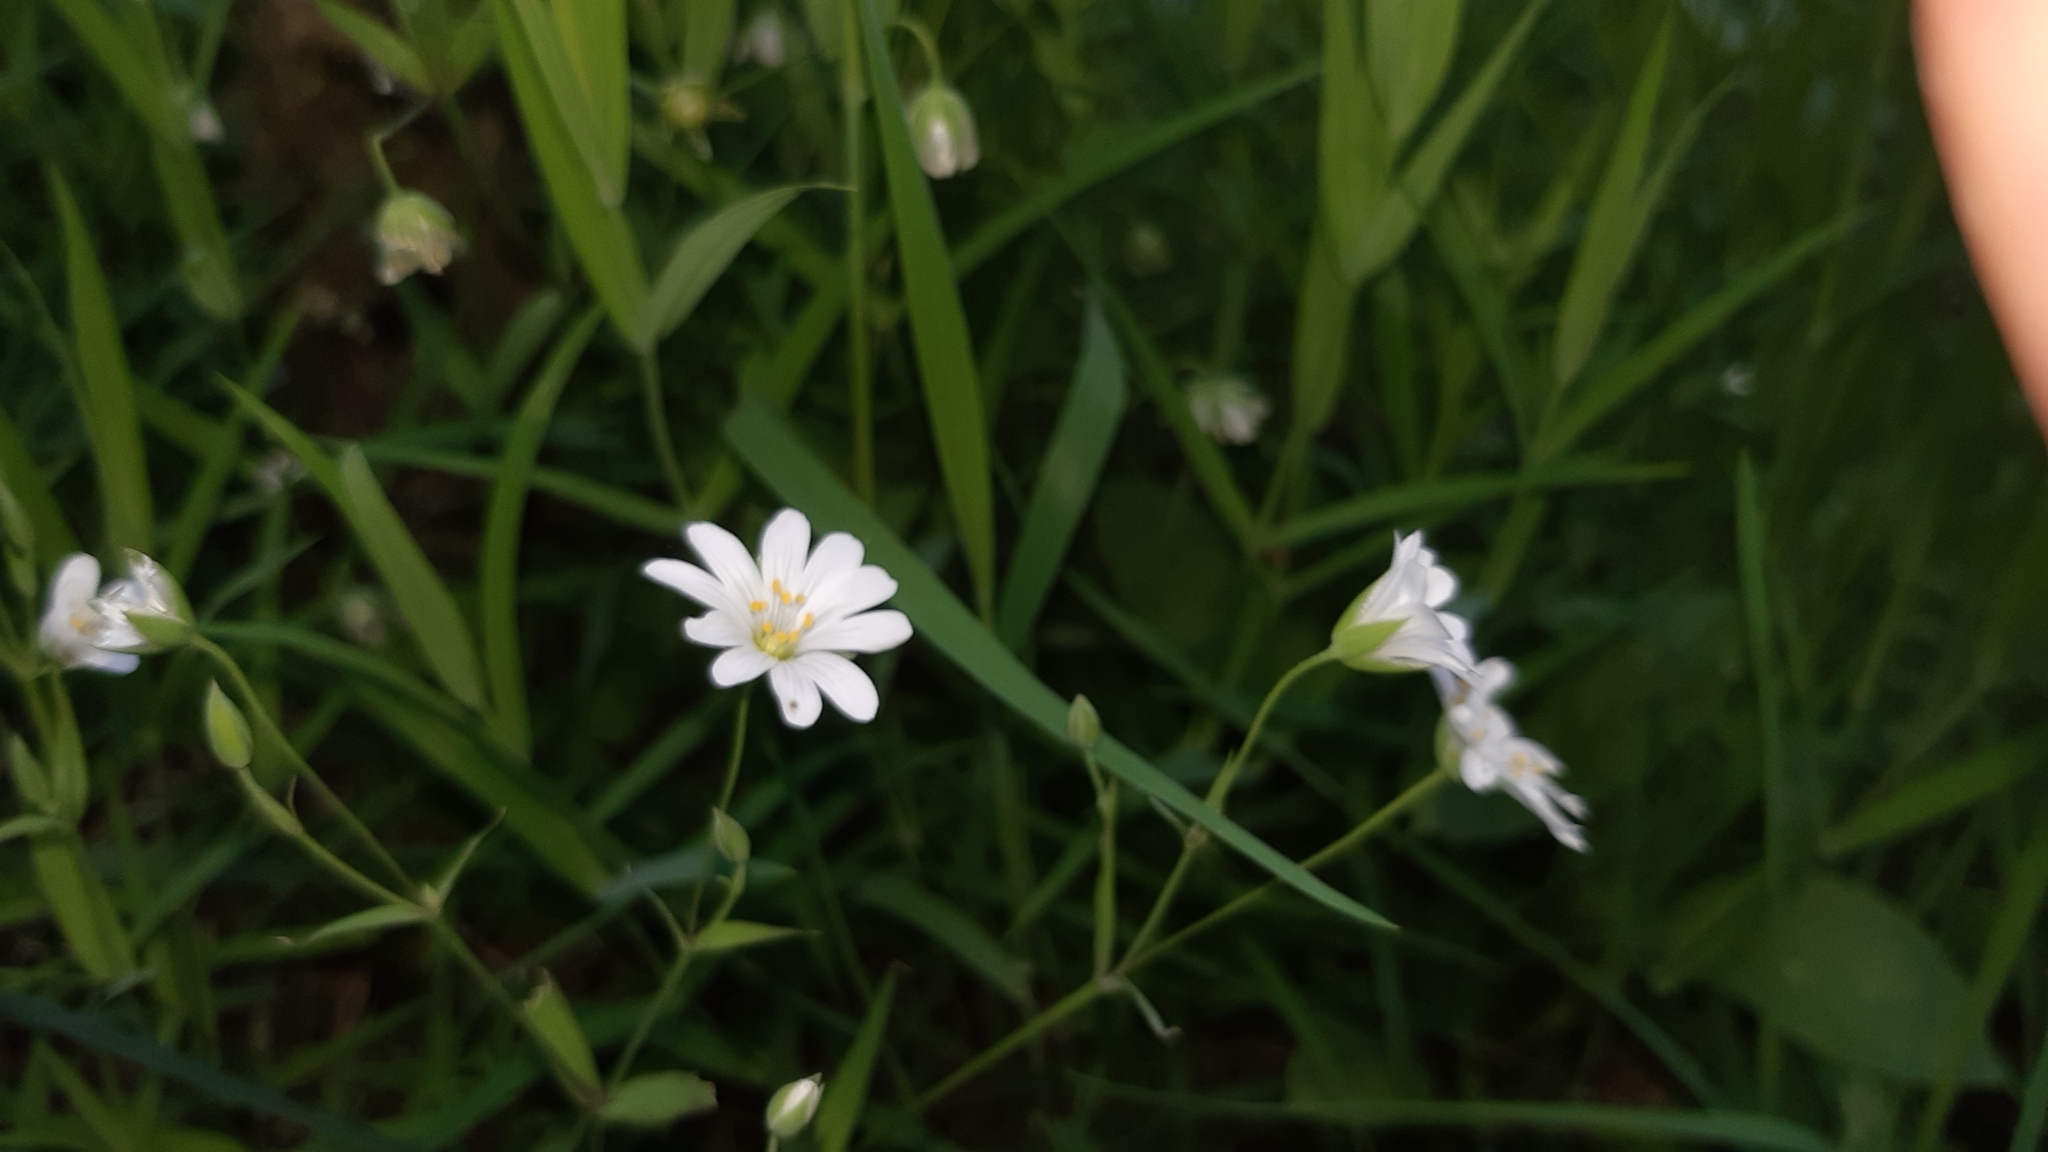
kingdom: Plantae
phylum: Tracheophyta
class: Magnoliopsida
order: Caryophyllales
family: Caryophyllaceae
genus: Rabelera
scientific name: Rabelera holostea
